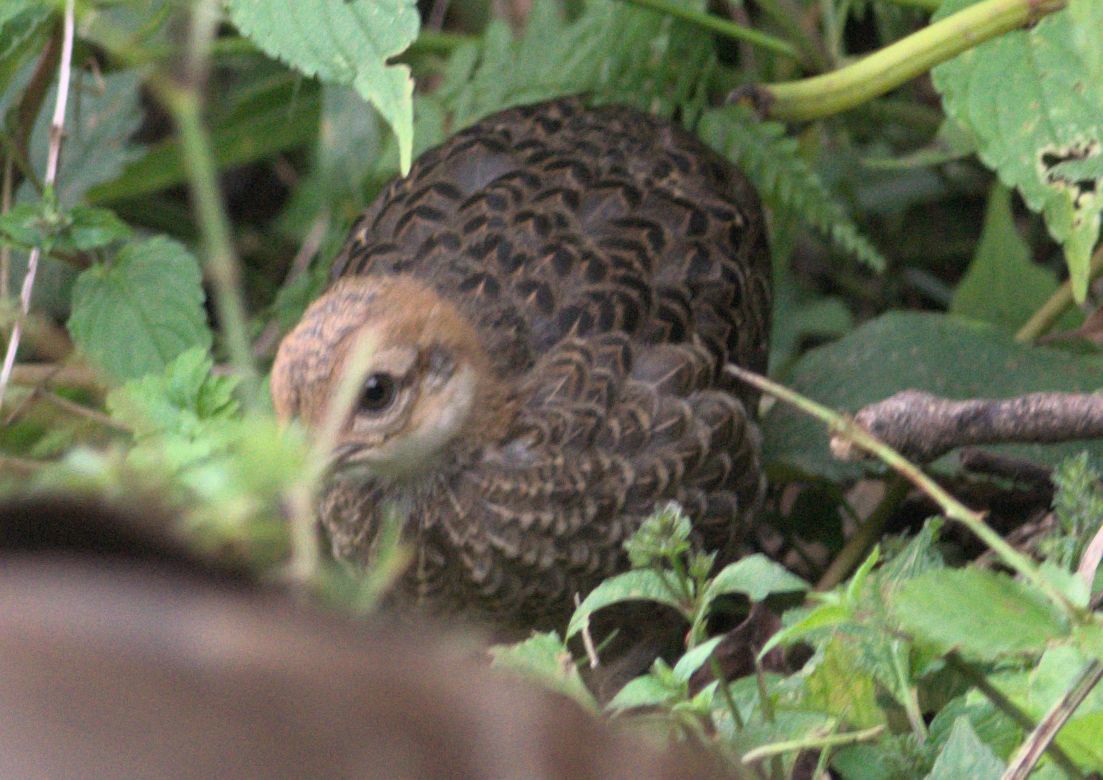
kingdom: Animalia
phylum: Chordata
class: Aves
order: Galliformes
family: Phasianidae
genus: Lophura
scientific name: Lophura leucomelanos
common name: Kalij pheasant
